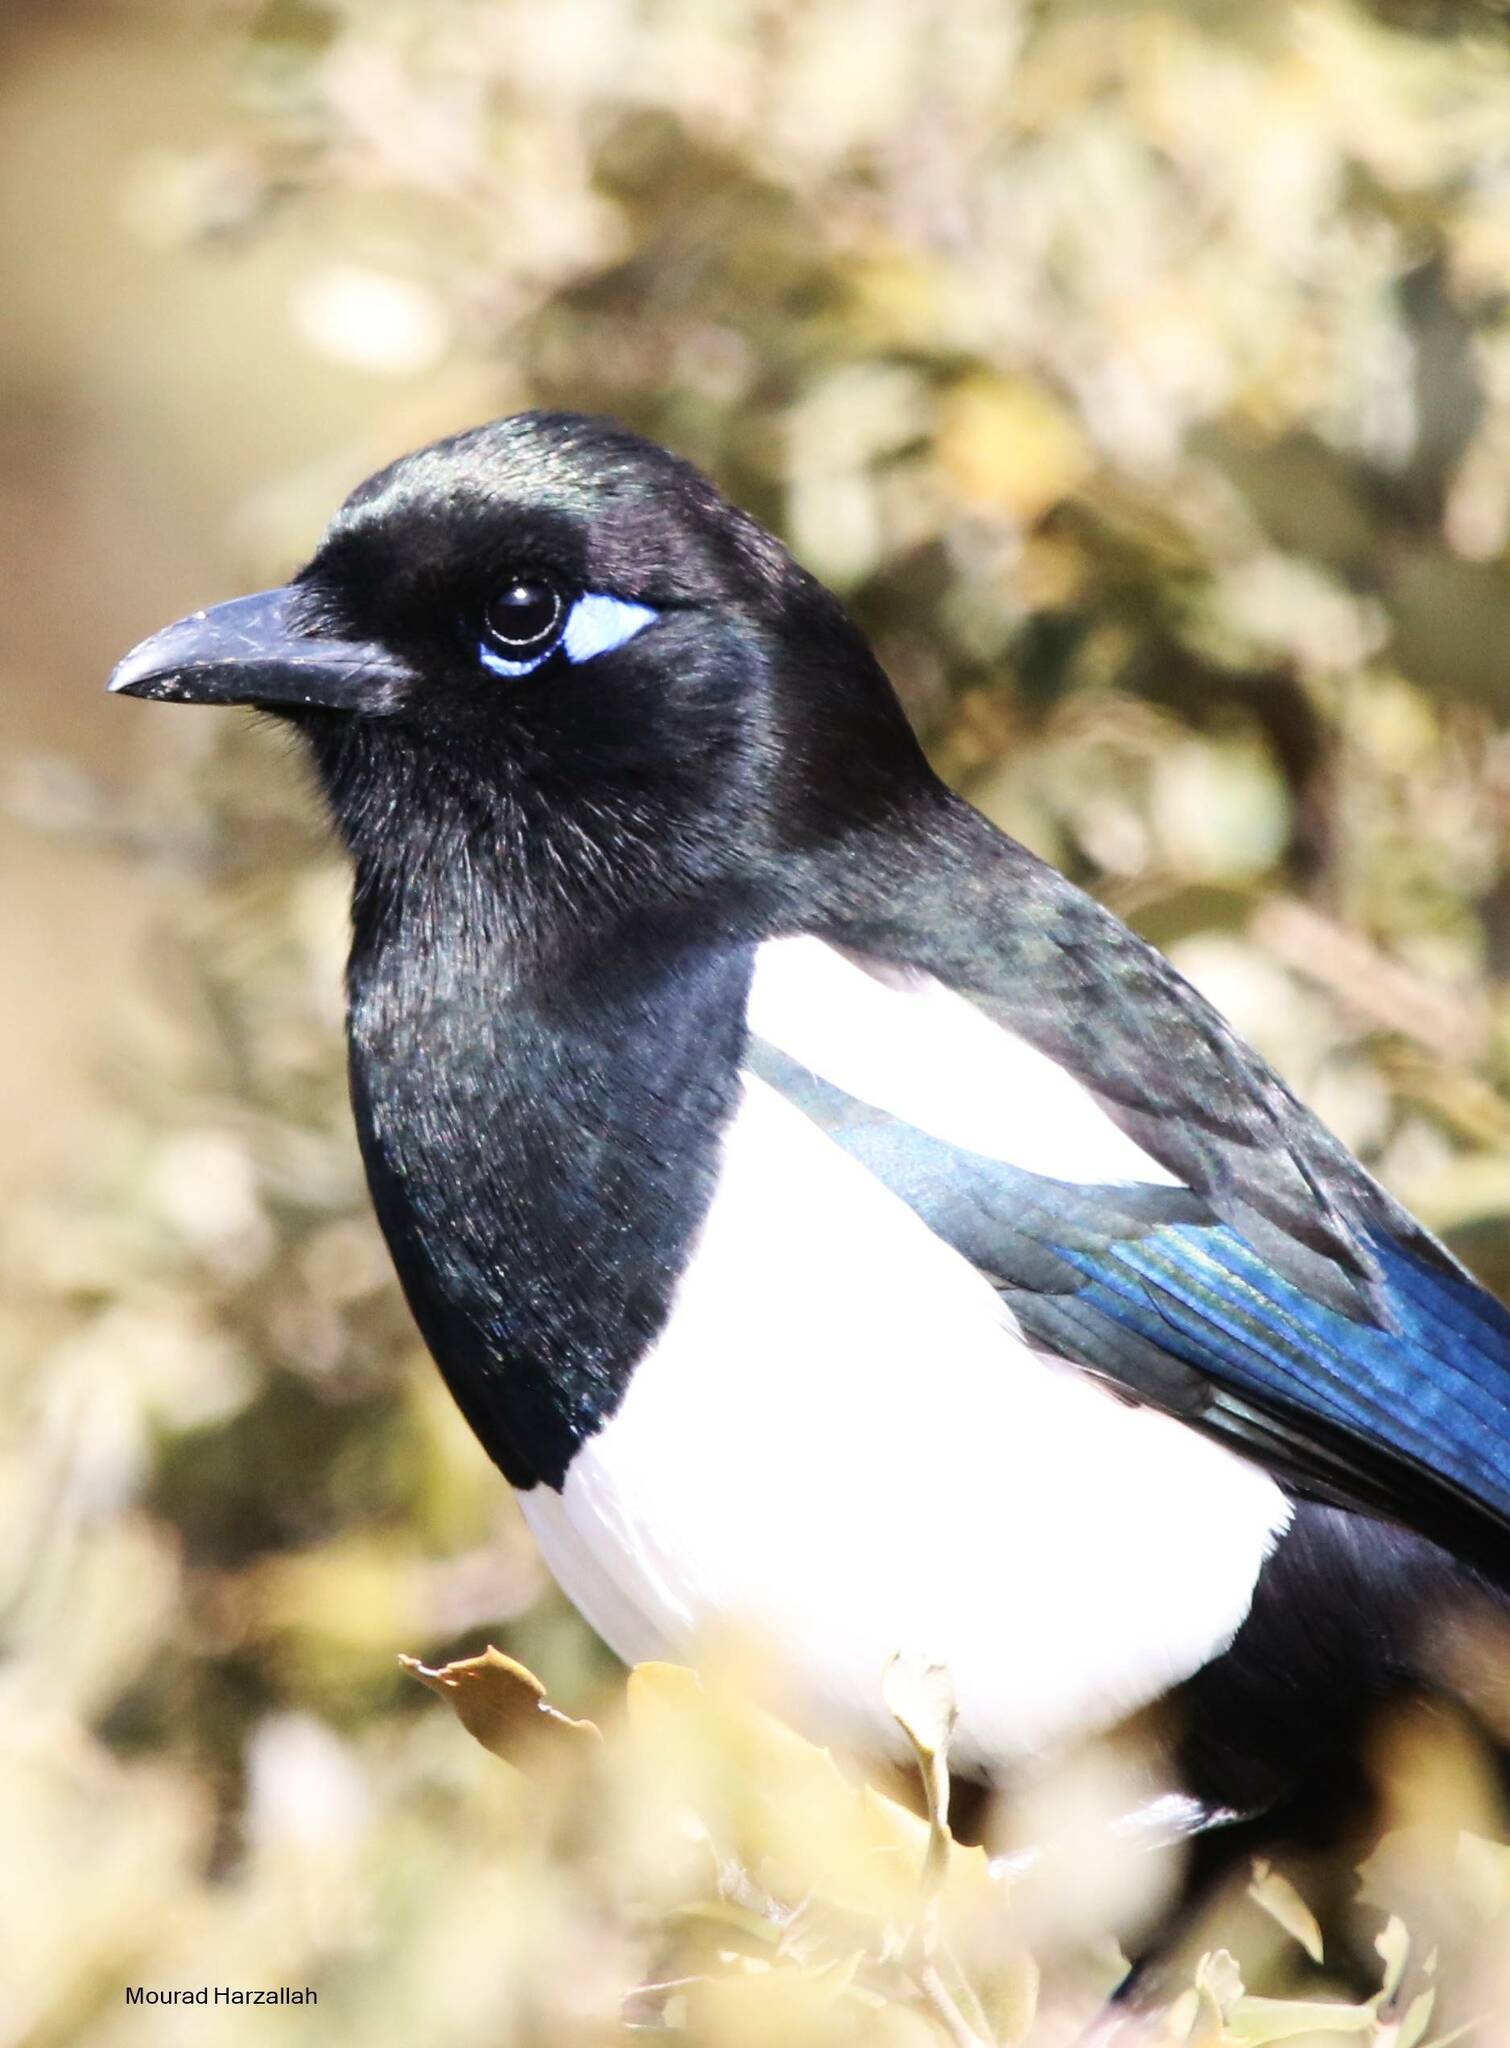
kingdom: Animalia
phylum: Chordata
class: Aves
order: Passeriformes
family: Corvidae
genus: Pica
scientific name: Pica mauritanica
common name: Maghreb magpie
